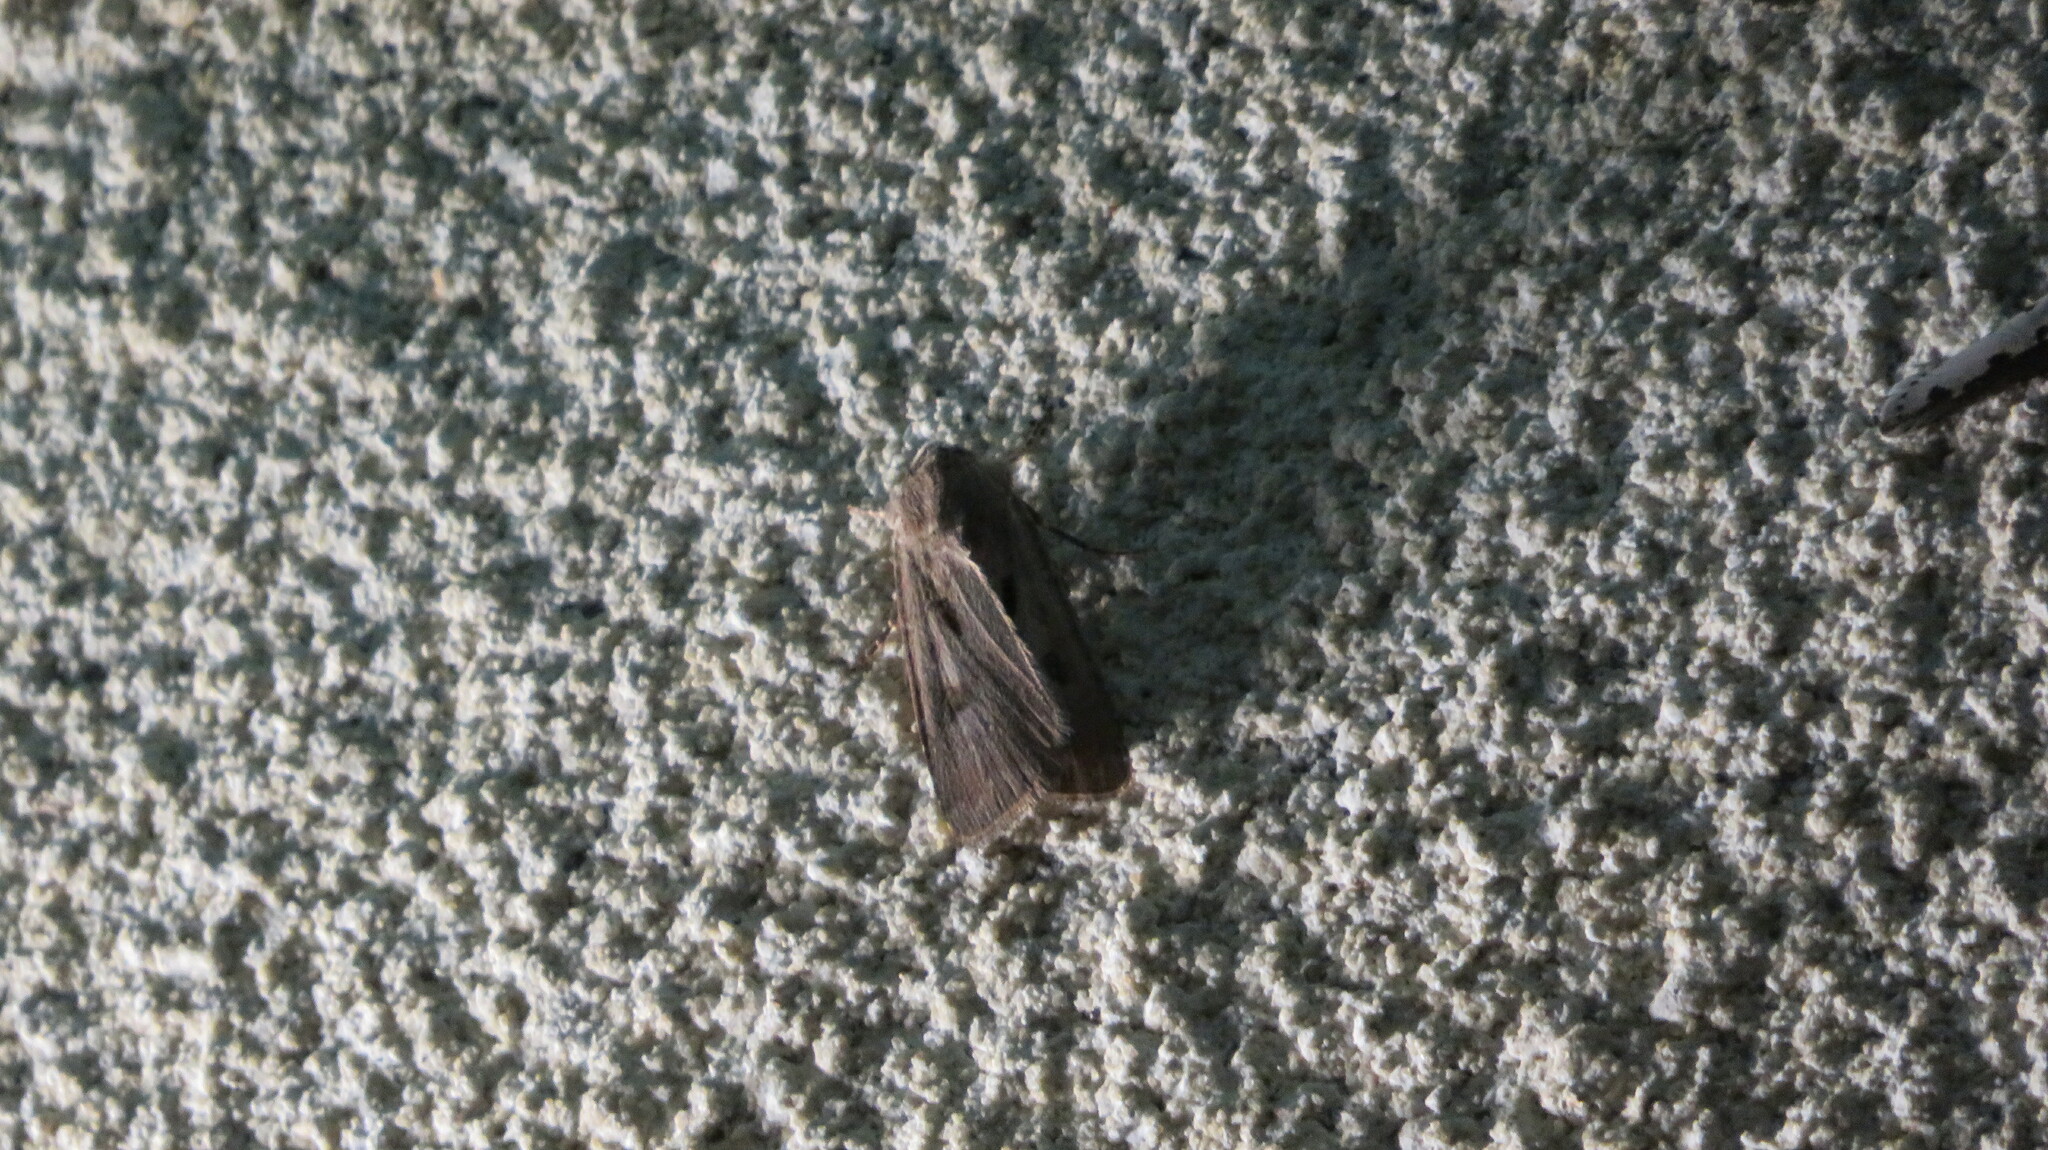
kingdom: Animalia
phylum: Arthropoda
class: Insecta
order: Lepidoptera
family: Noctuidae
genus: Agrotis
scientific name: Agrotis exclamationis
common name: Heart and dart
